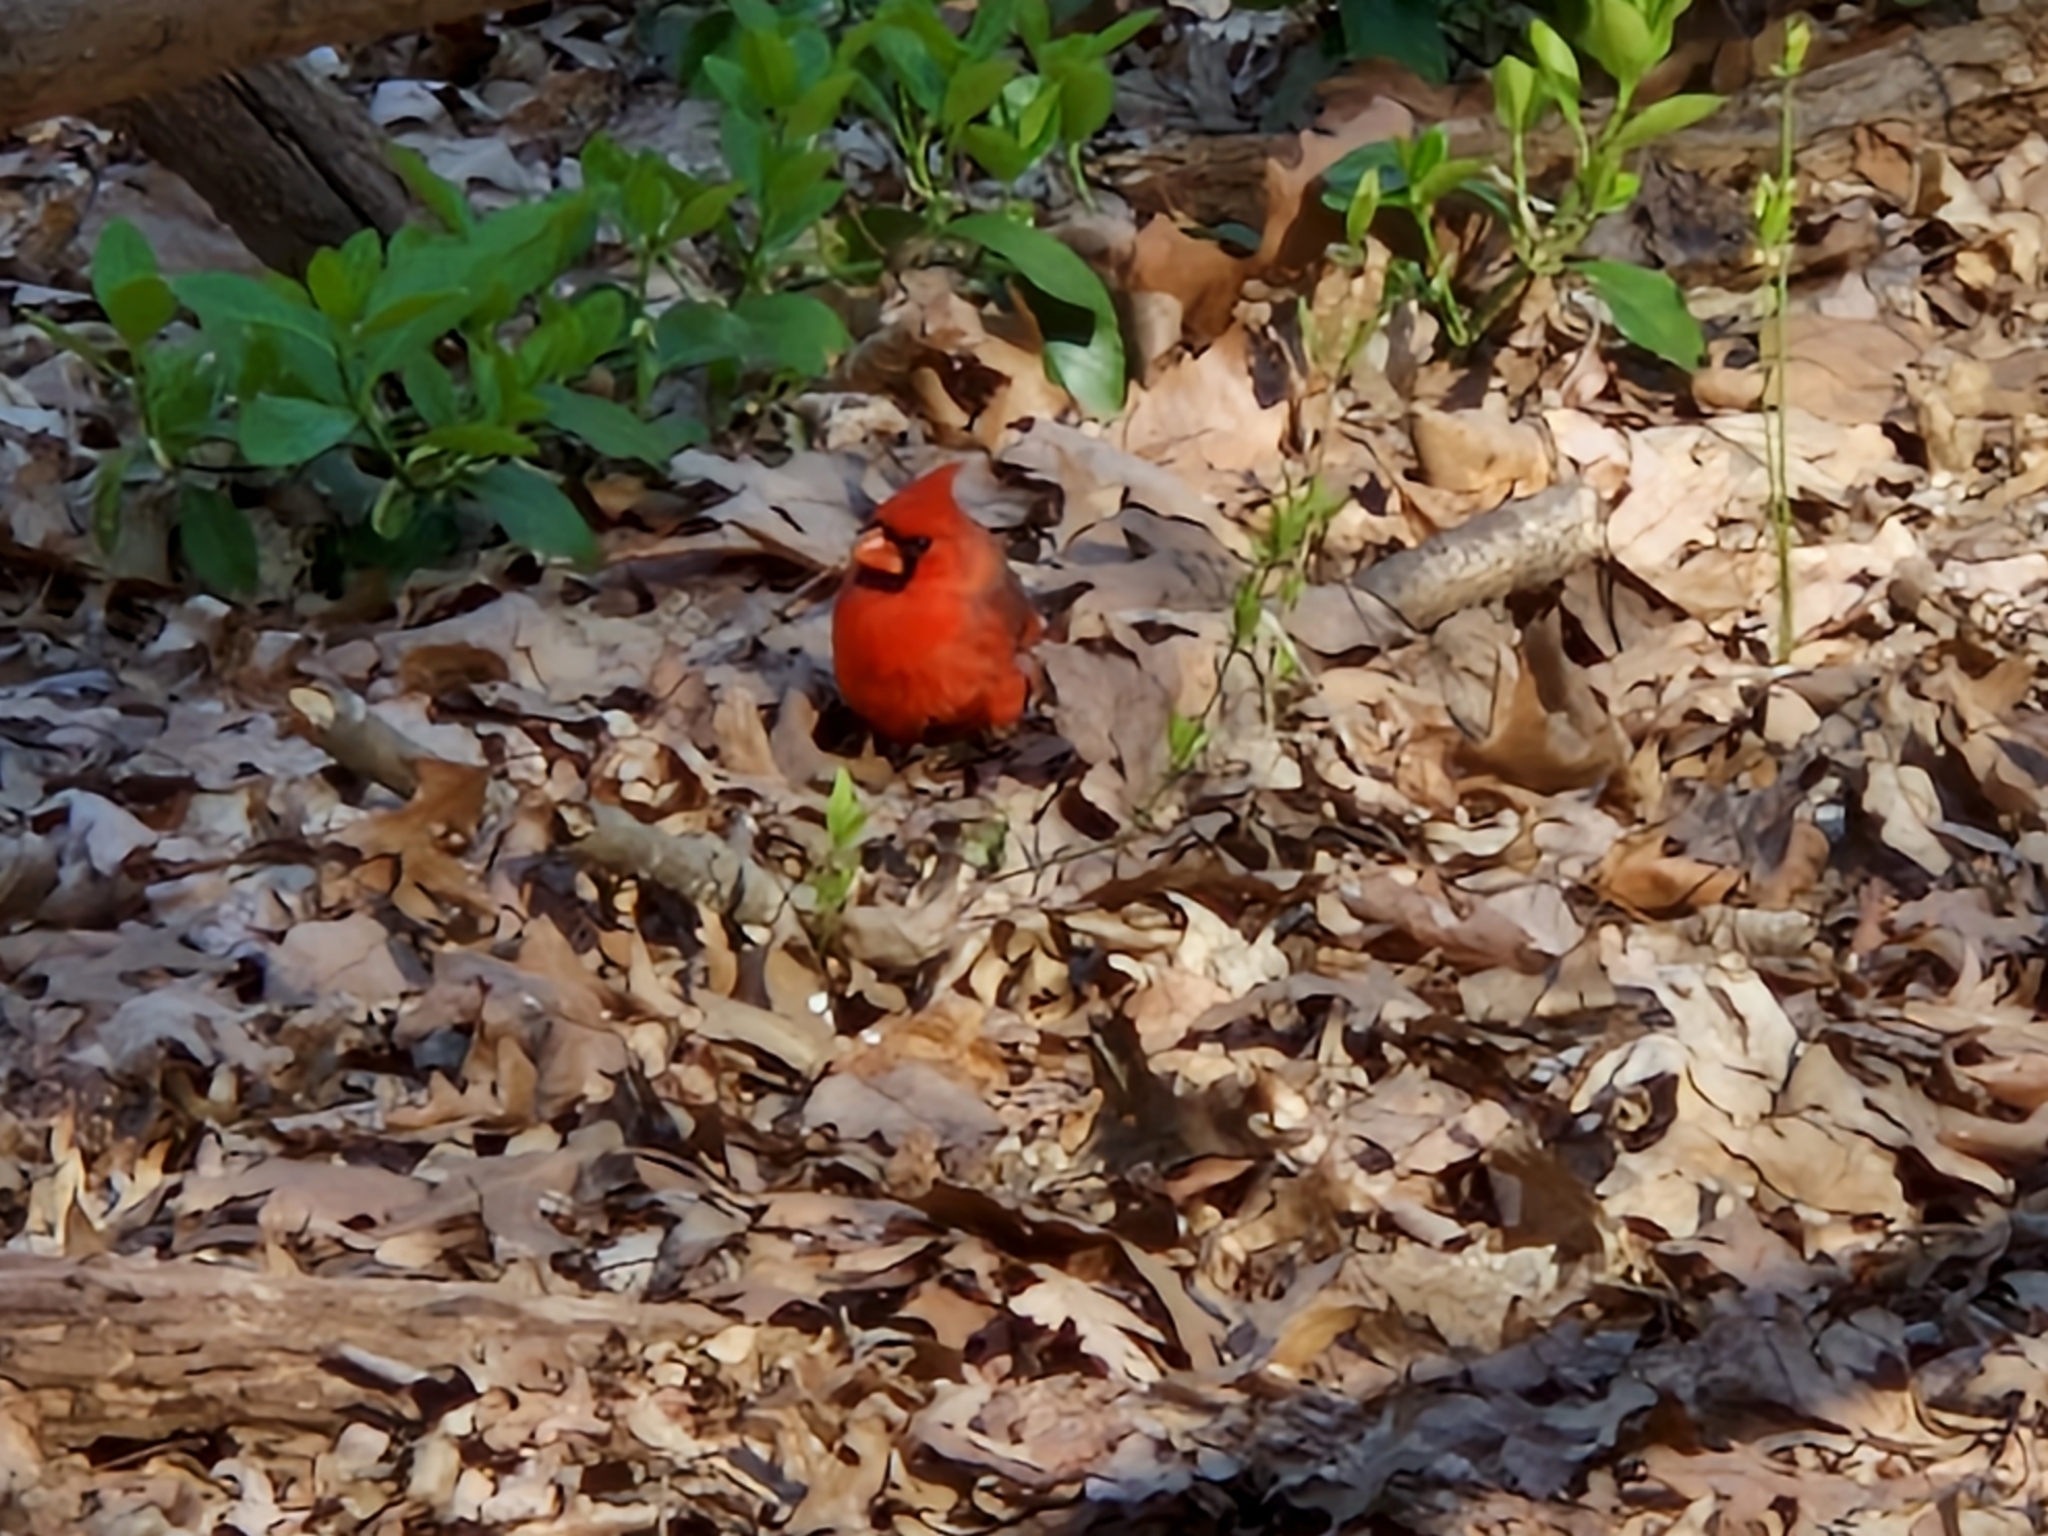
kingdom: Animalia
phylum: Chordata
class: Aves
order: Passeriformes
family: Cardinalidae
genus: Cardinalis
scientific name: Cardinalis cardinalis
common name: Northern cardinal
